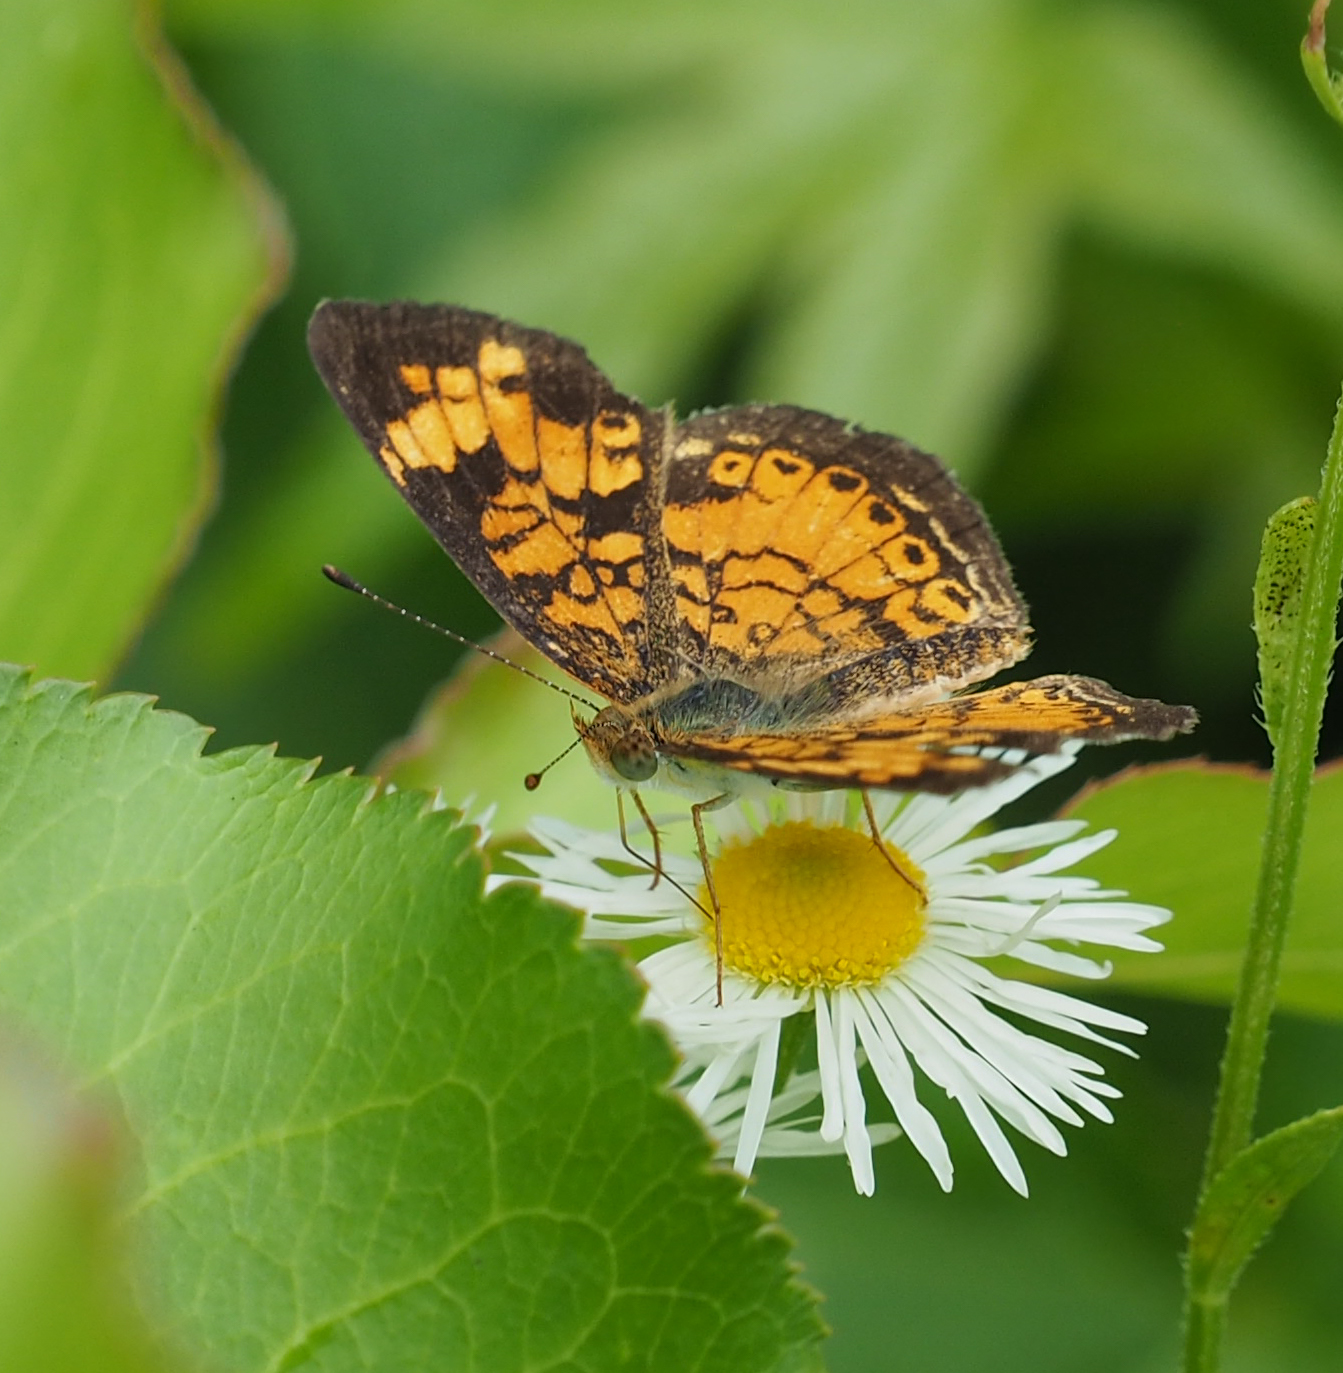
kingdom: Animalia
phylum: Arthropoda
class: Insecta
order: Lepidoptera
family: Nymphalidae
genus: Phyciodes
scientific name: Phyciodes tharos
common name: Pearl crescent
